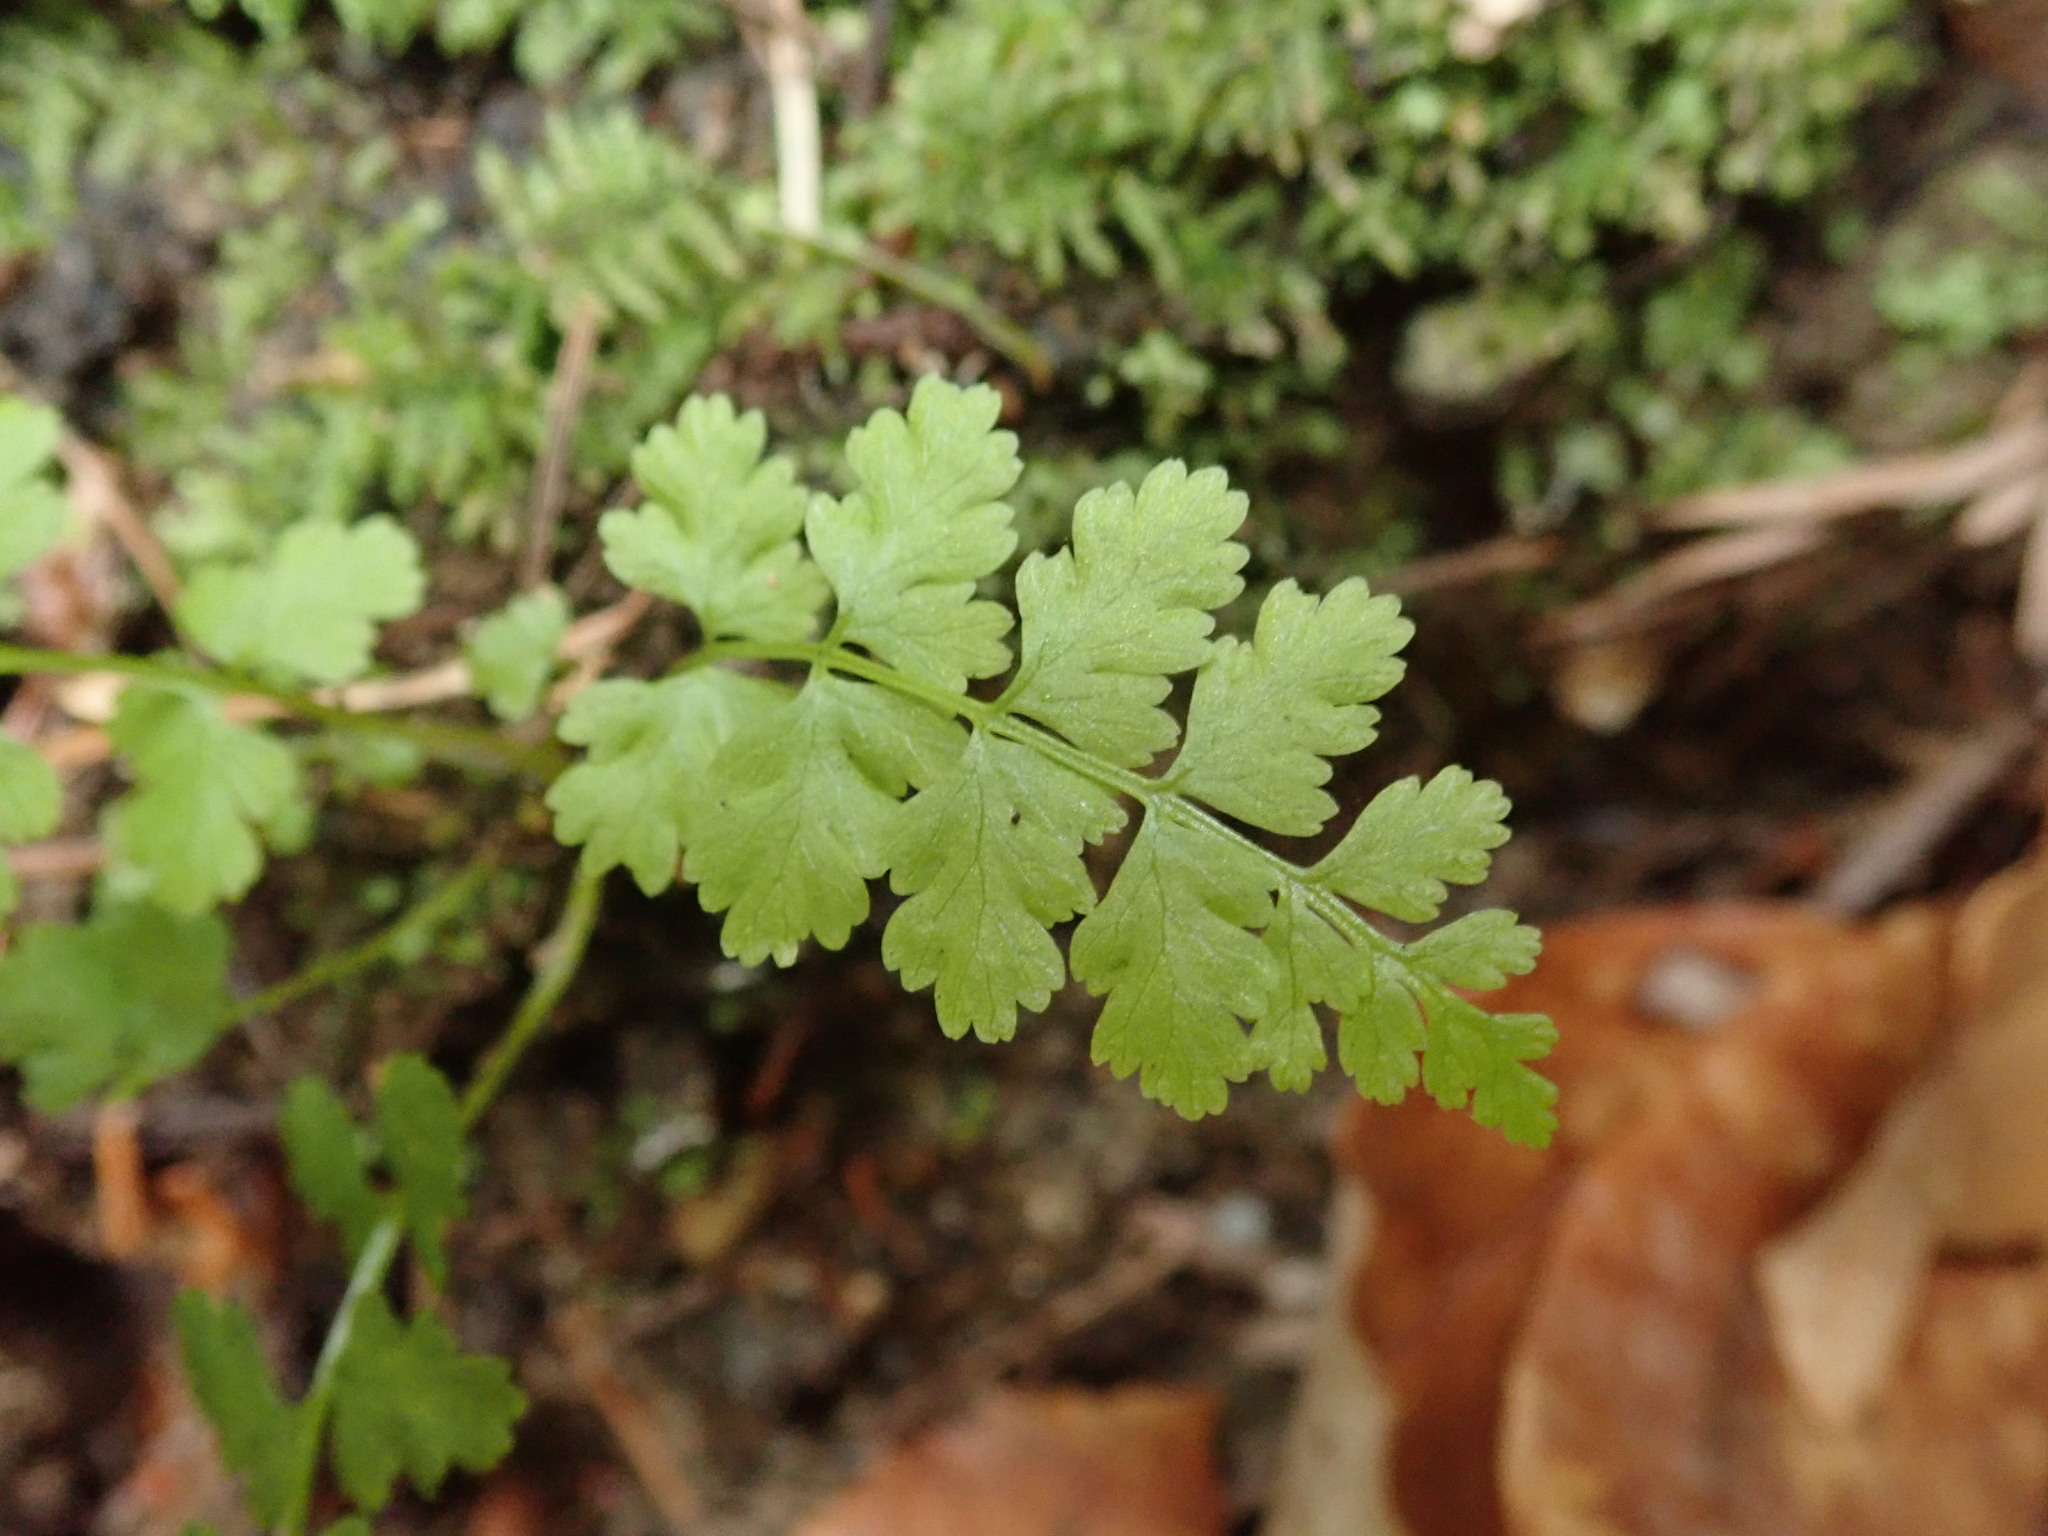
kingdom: Plantae
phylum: Tracheophyta
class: Polypodiopsida
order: Polypodiales
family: Cystopteridaceae
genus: Cystopteris
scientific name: Cystopteris fragilis
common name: Brittle bladder fern
